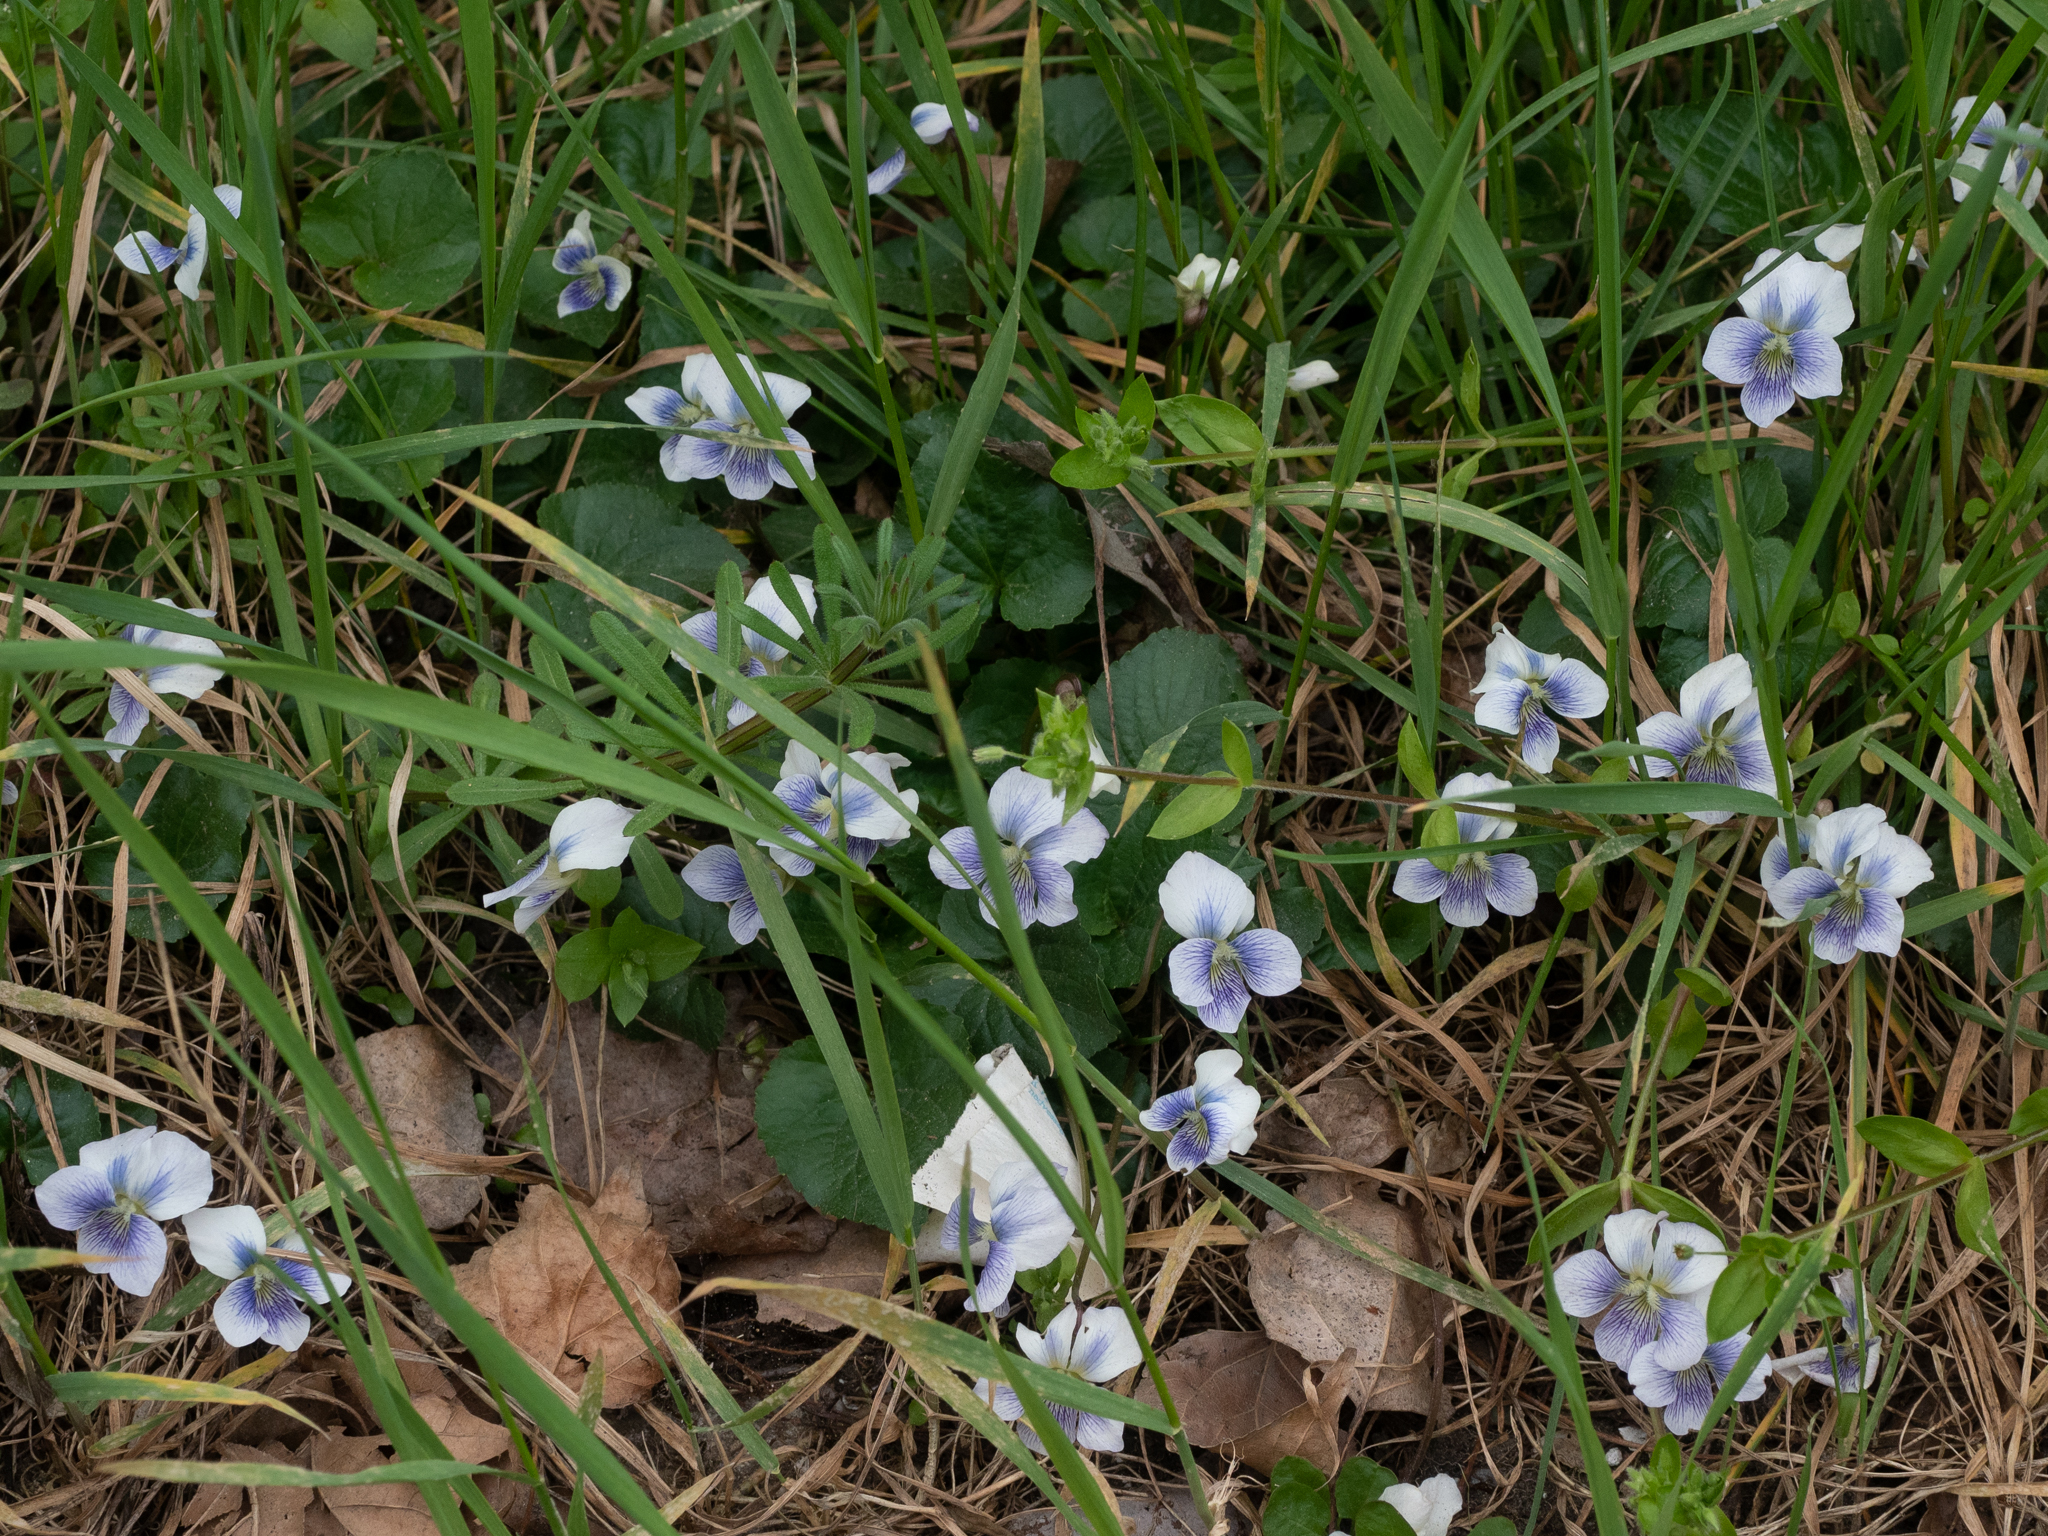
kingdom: Plantae
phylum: Tracheophyta
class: Magnoliopsida
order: Malpighiales
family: Violaceae
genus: Viola
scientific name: Viola sororia
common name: Dooryard violet
